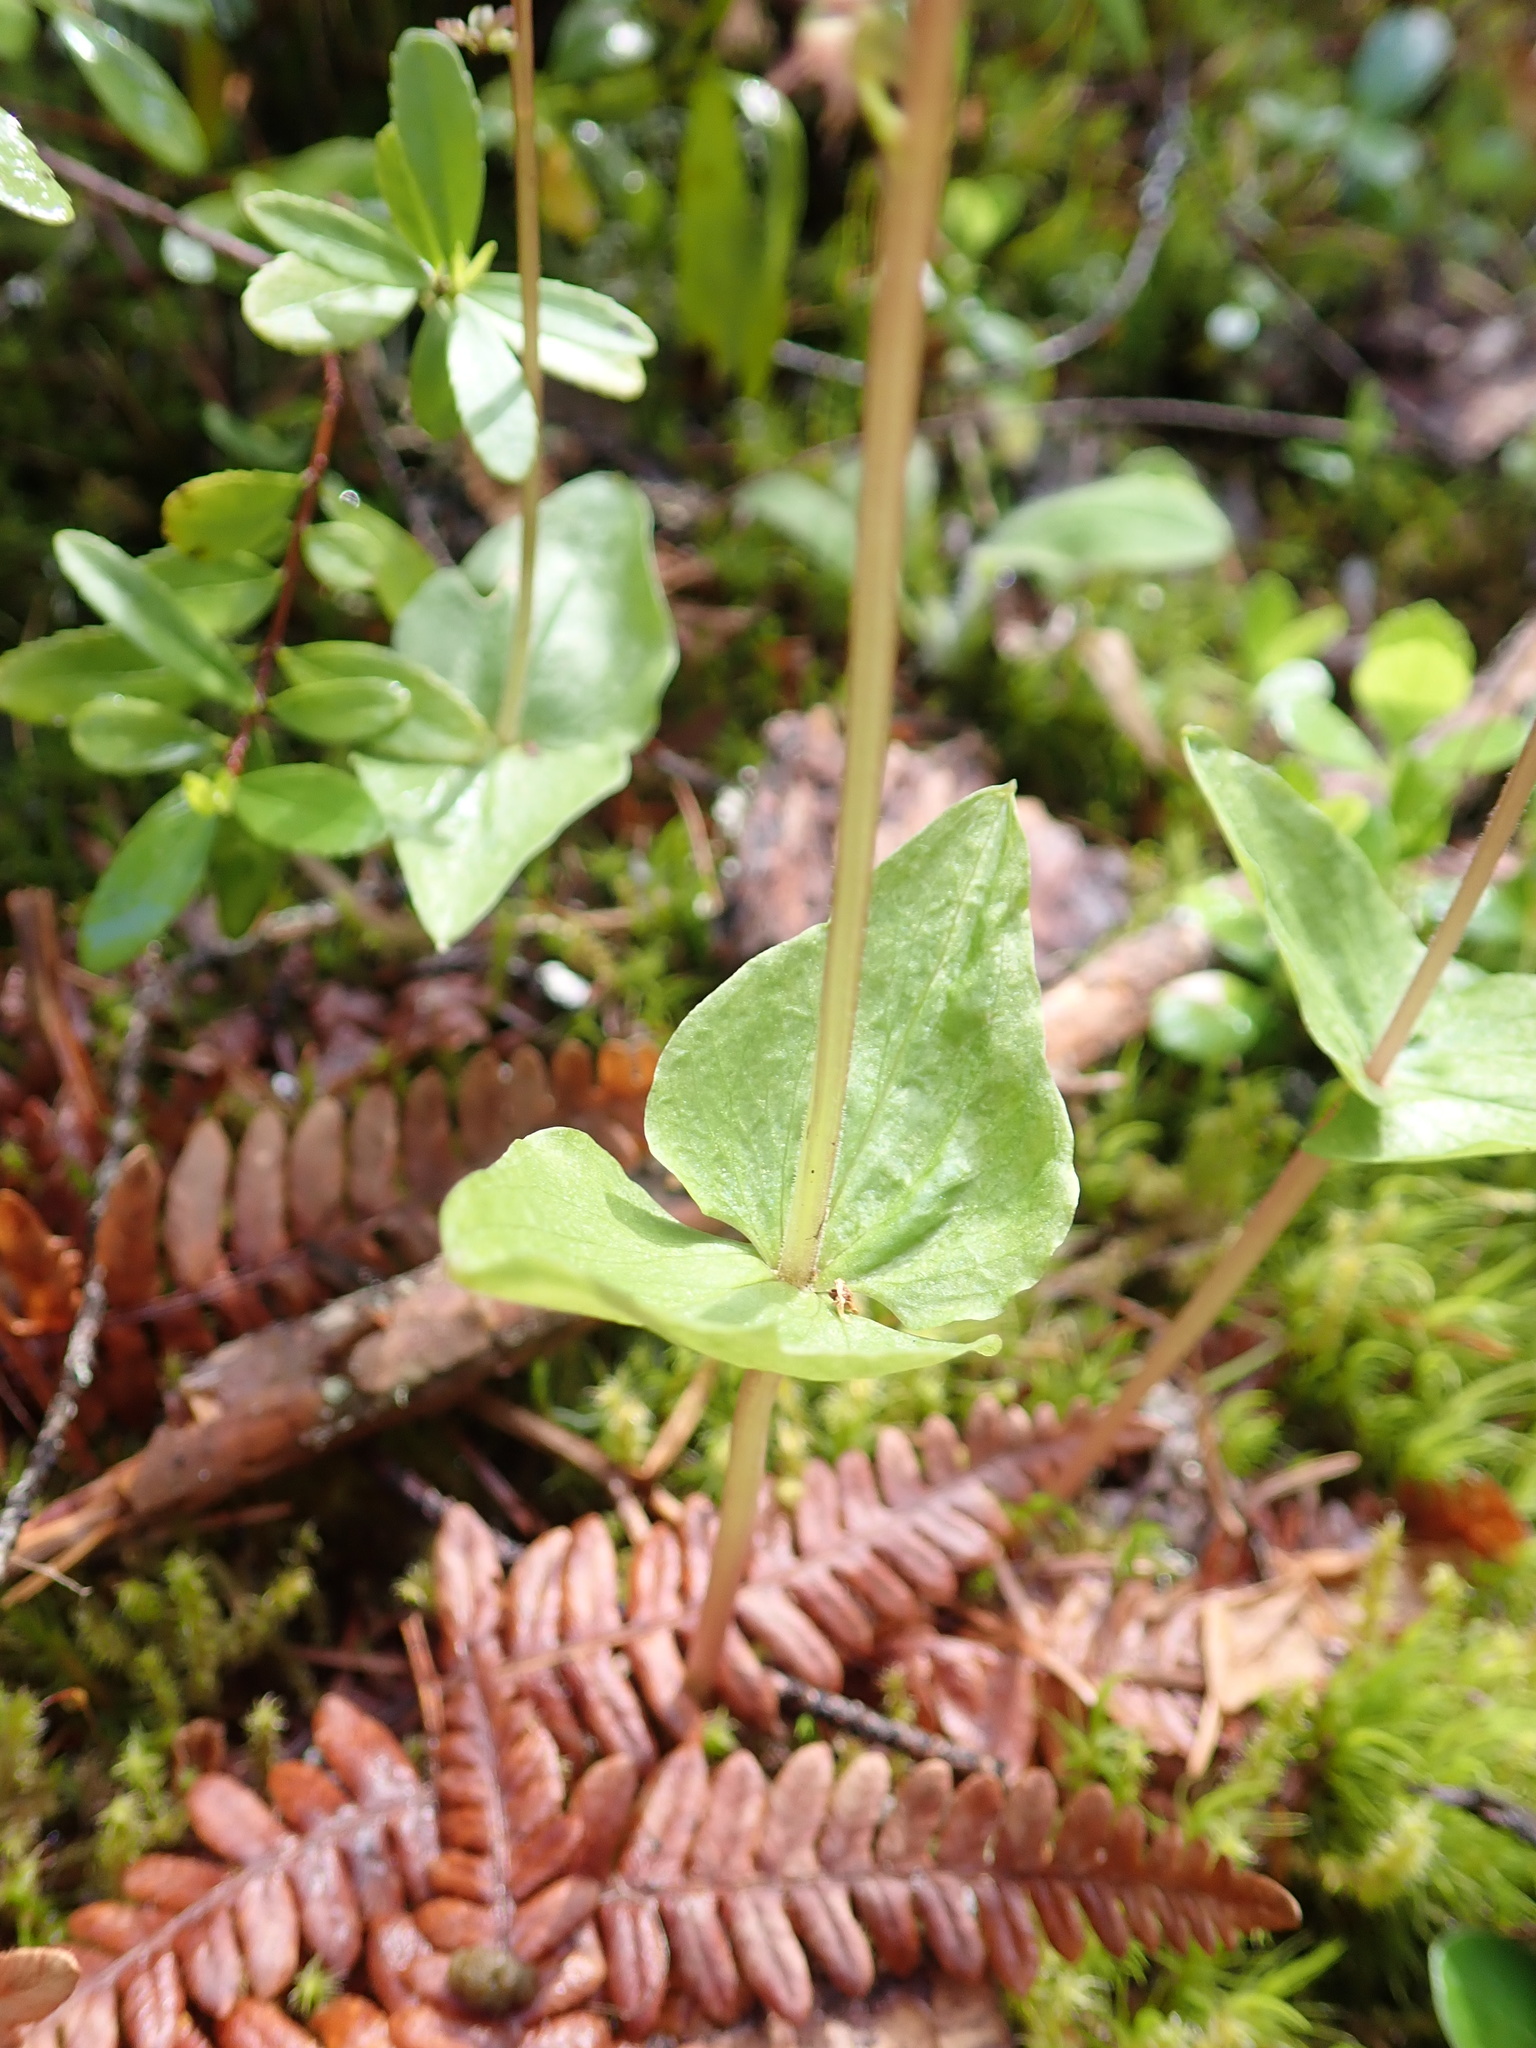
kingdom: Plantae
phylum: Tracheophyta
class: Liliopsida
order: Asparagales
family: Orchidaceae
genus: Neottia
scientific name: Neottia cordata
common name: Lesser twayblade
